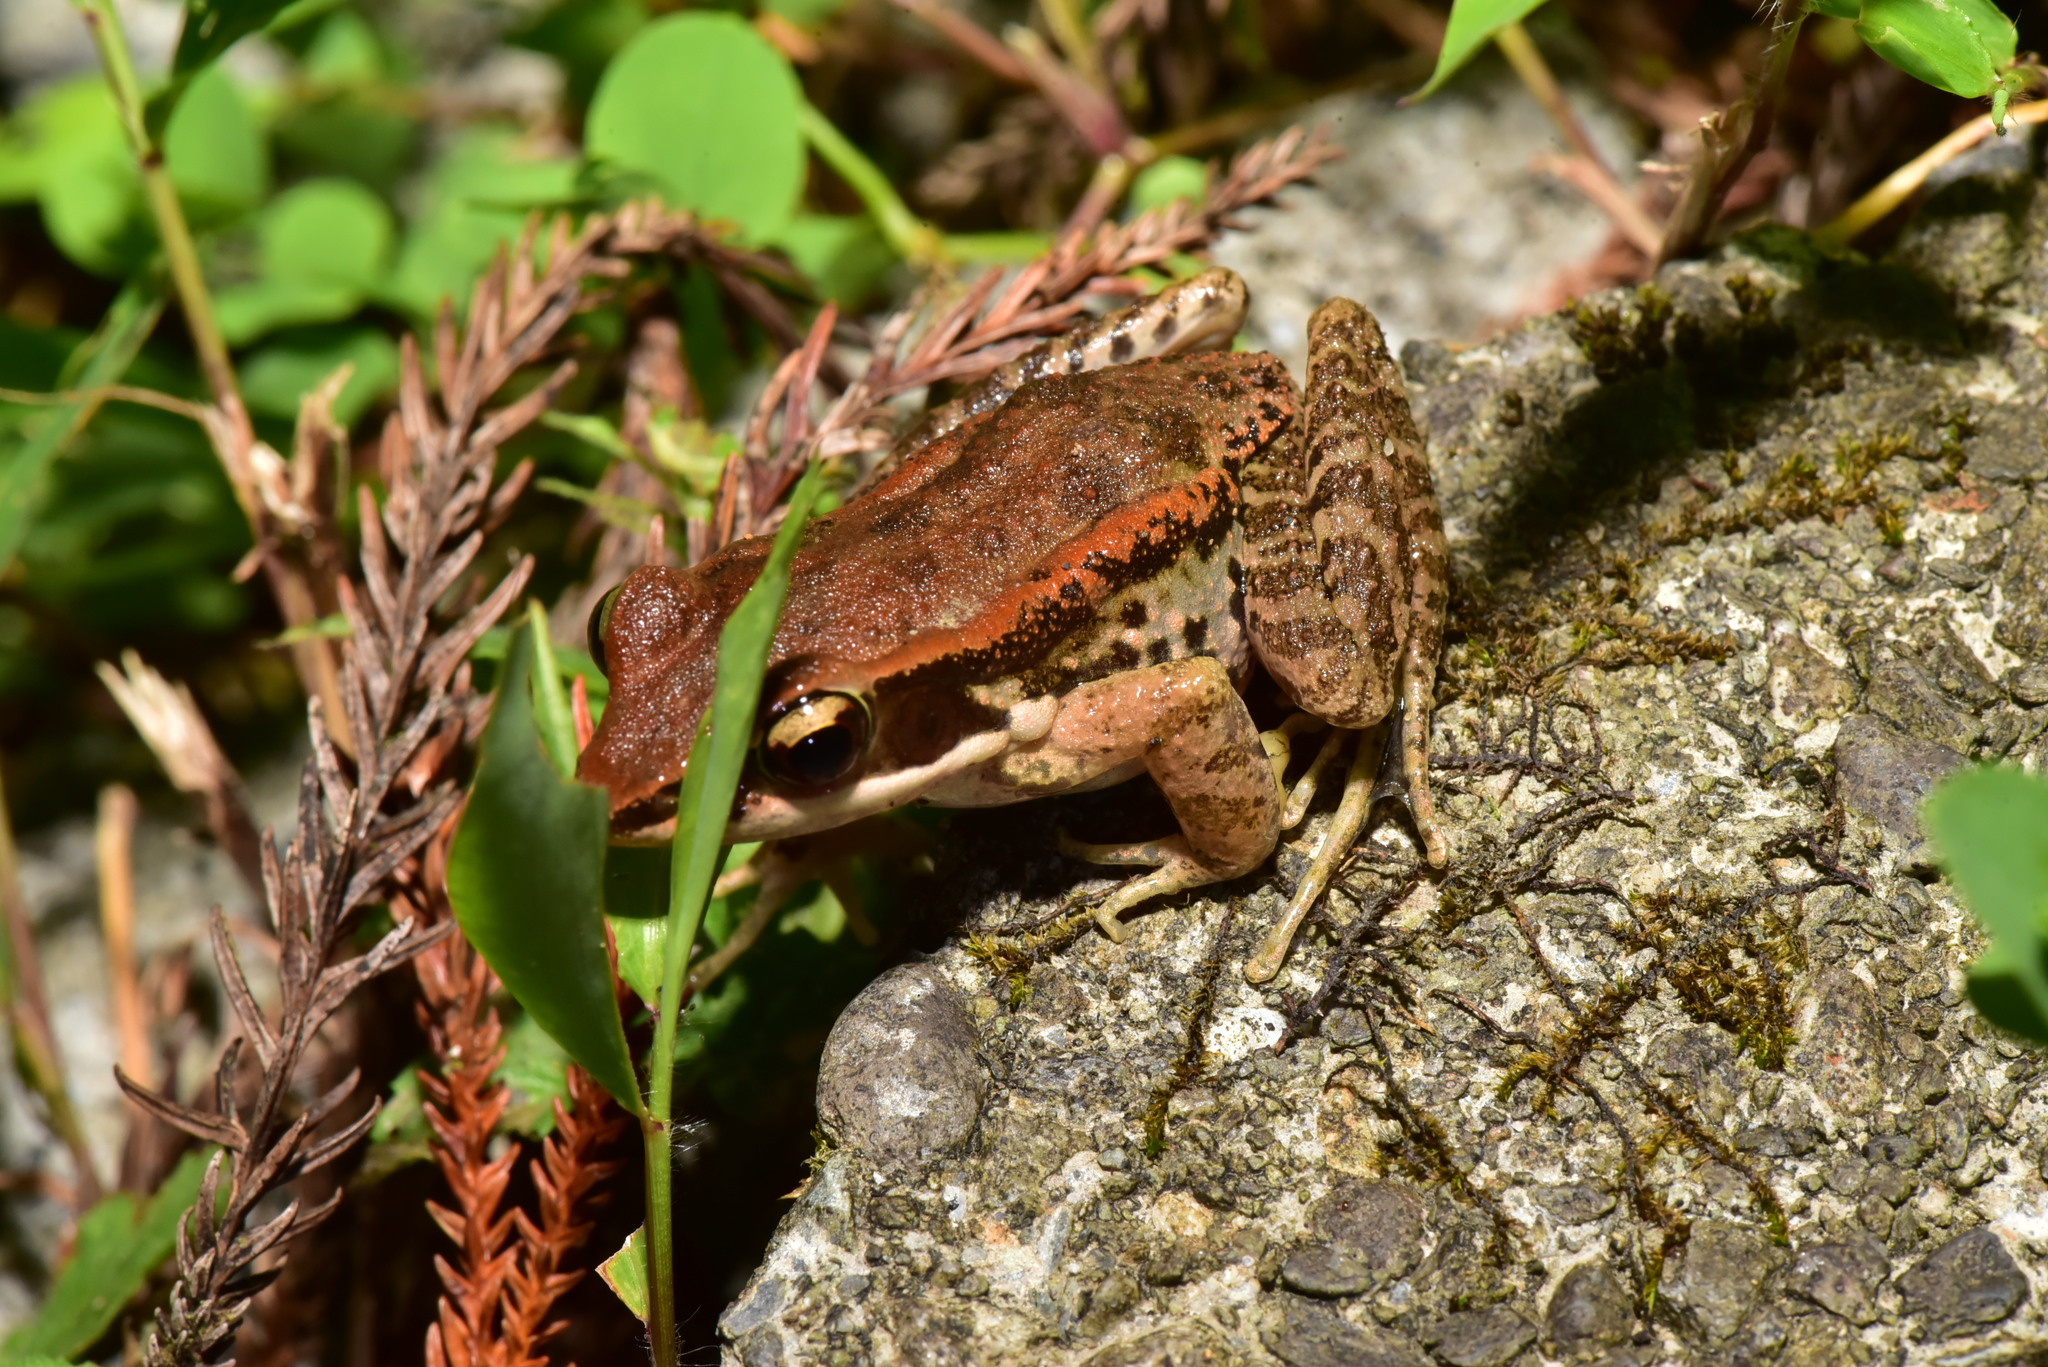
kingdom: Animalia
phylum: Chordata
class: Amphibia
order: Anura
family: Ranidae
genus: Hylarana
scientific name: Hylarana latouchii
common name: Broad-folded frog
